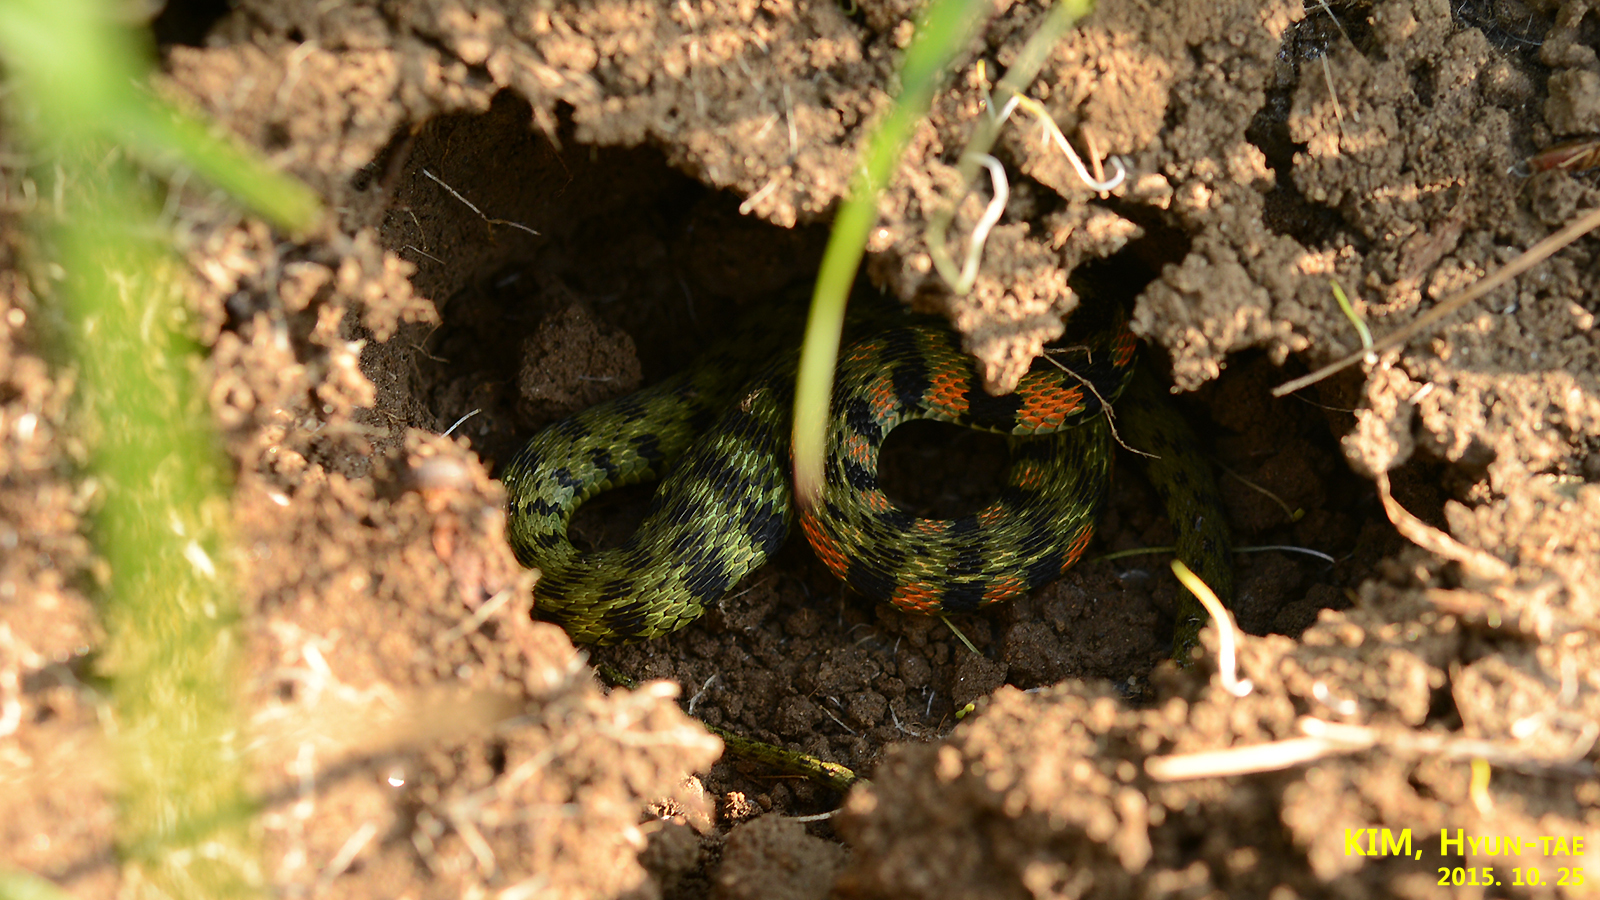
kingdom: Animalia
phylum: Chordata
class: Squamata
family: Colubridae
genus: Rhabdophis
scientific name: Rhabdophis tigrinus
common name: Tiger keelback
